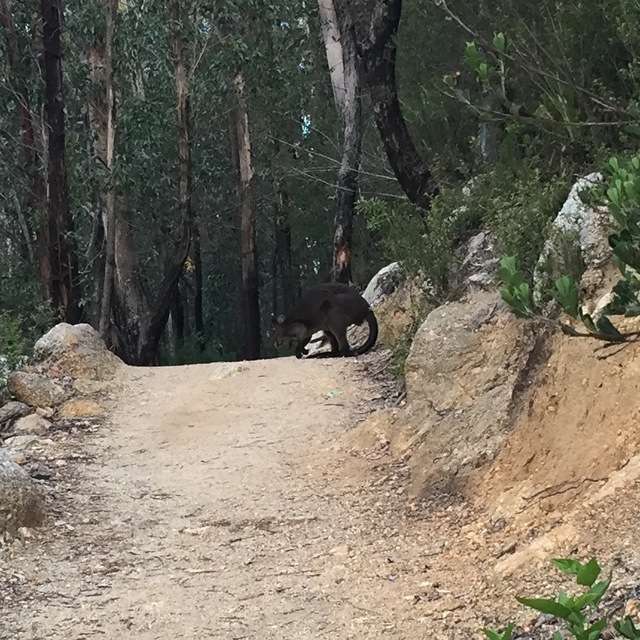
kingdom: Animalia
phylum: Chordata
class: Mammalia
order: Diprotodontia
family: Macropodidae
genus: Wallabia
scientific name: Wallabia bicolor
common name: Swamp wallaby
